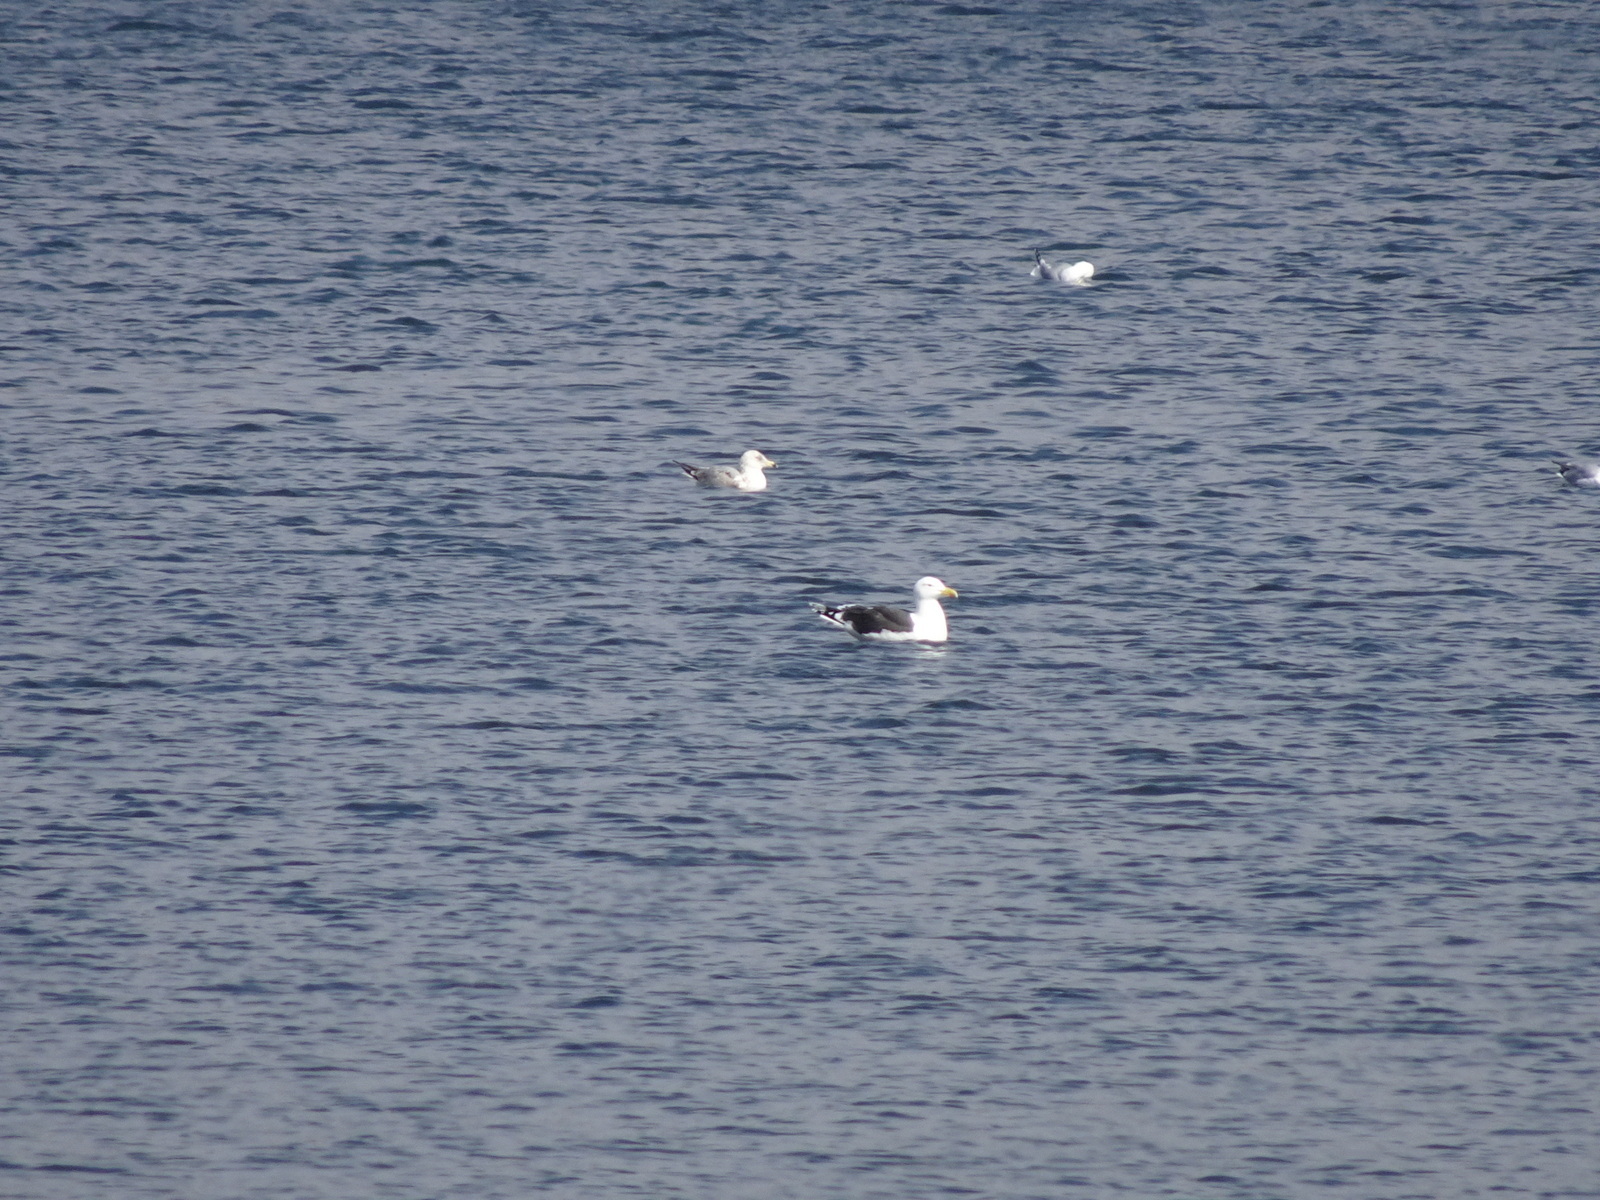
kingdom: Animalia
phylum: Chordata
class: Aves
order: Charadriiformes
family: Laridae
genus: Larus
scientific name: Larus marinus
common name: Great black-backed gull
